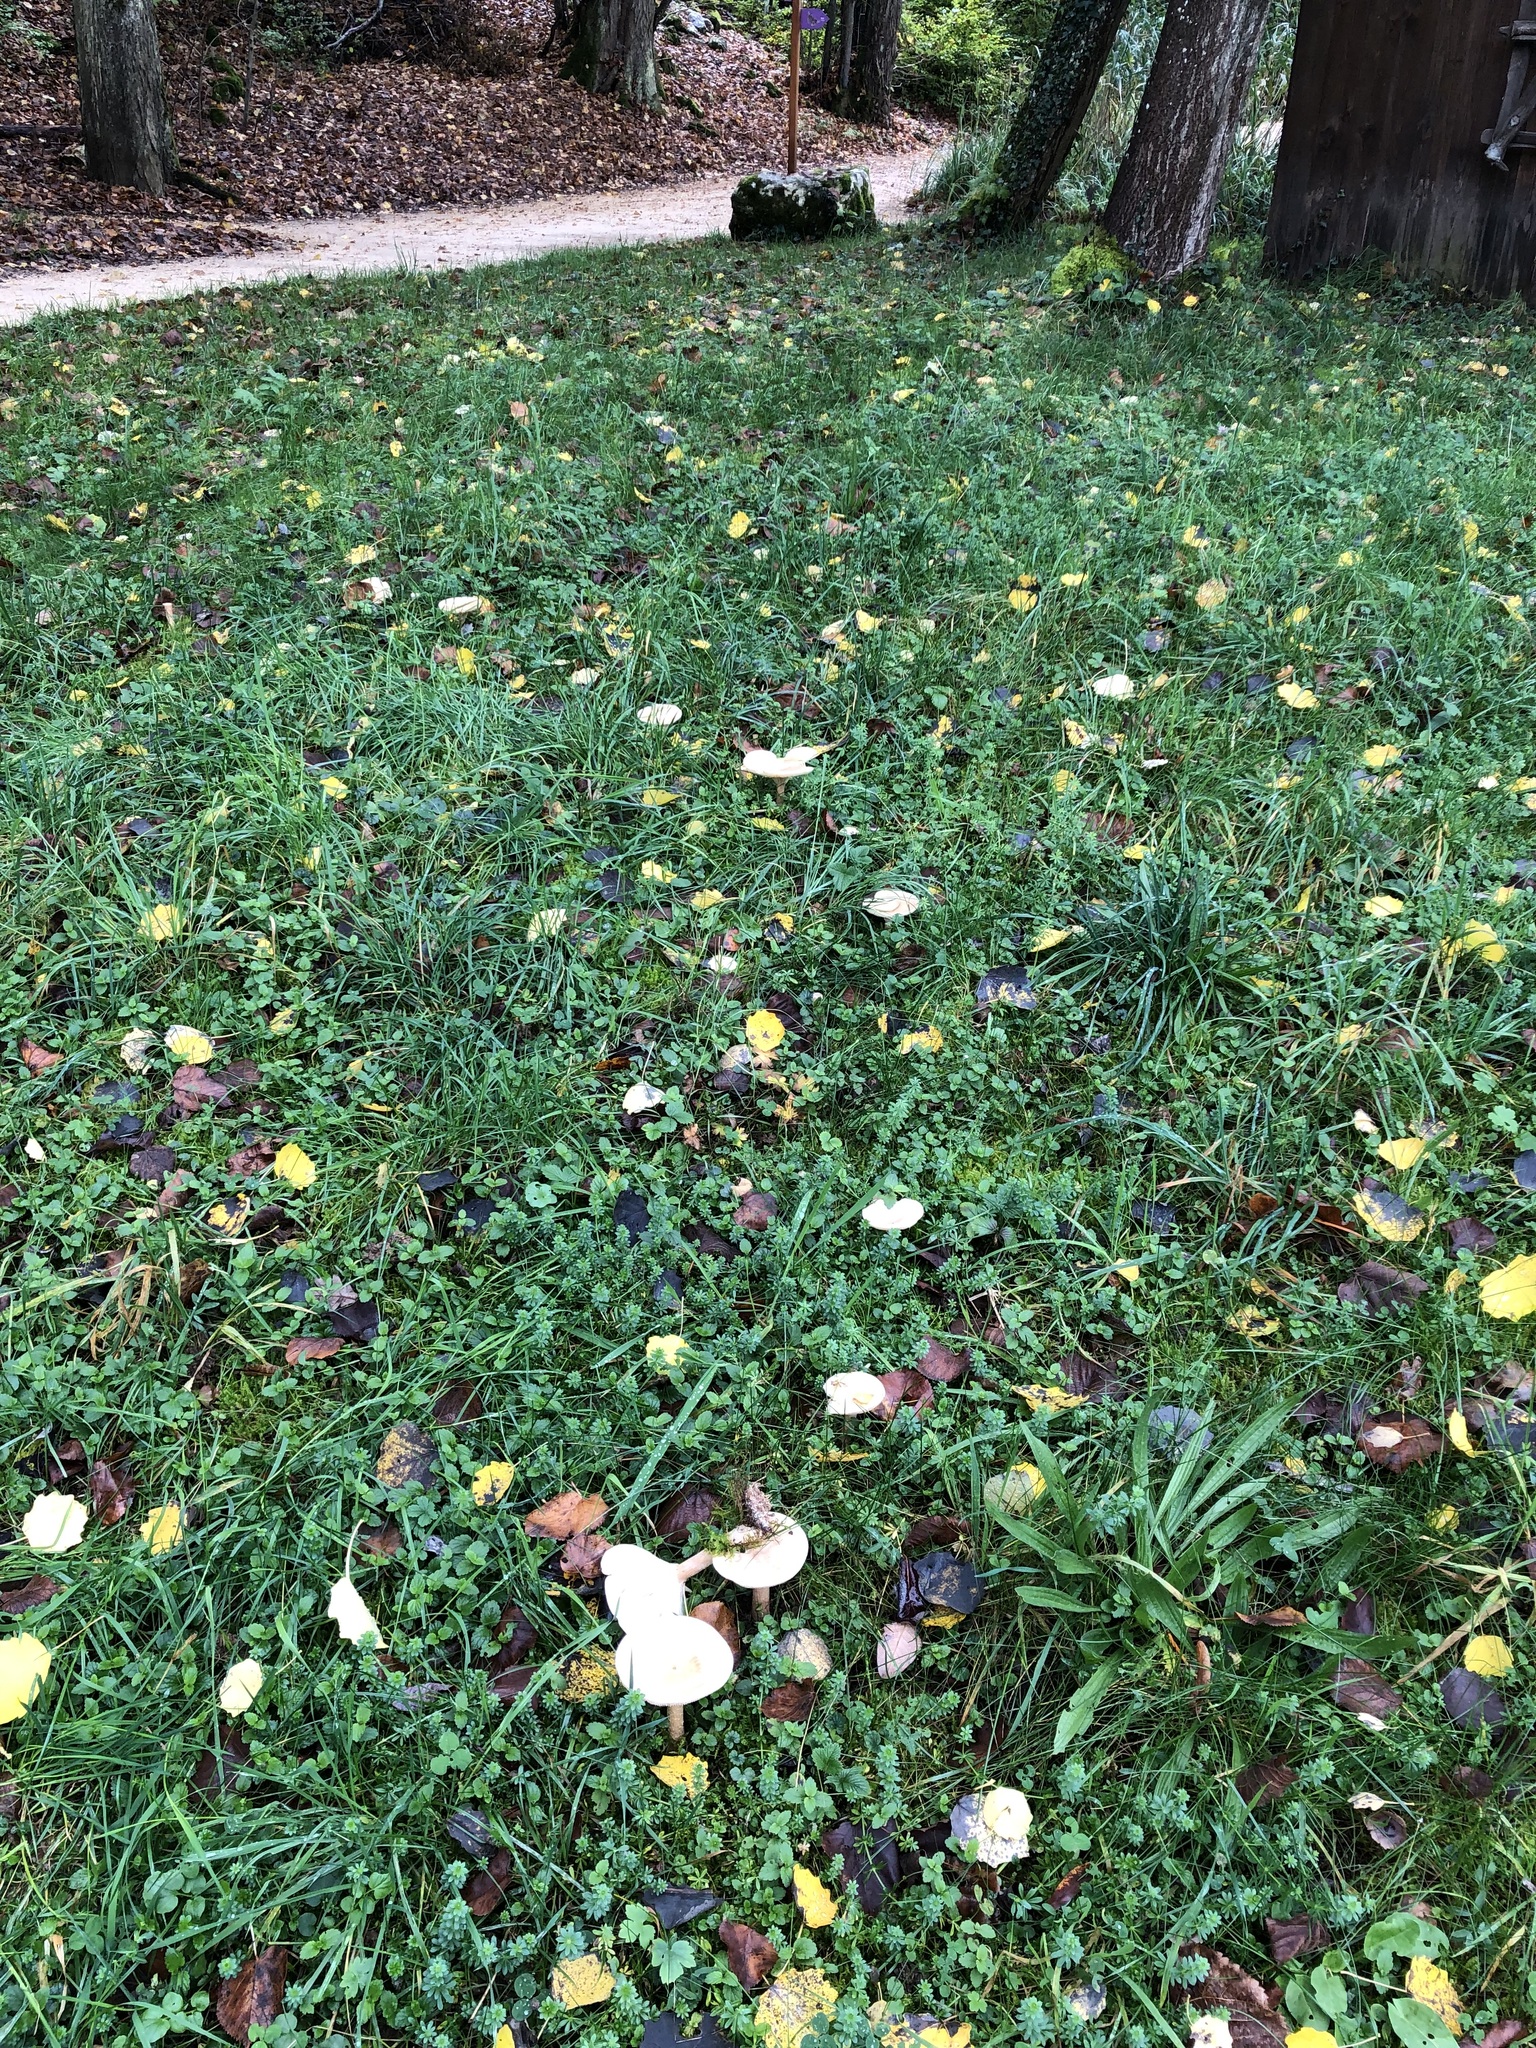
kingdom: Fungi
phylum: Basidiomycota
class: Agaricomycetes
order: Agaricales
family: Tricholomataceae
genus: Infundibulicybe
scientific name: Infundibulicybe geotropa
